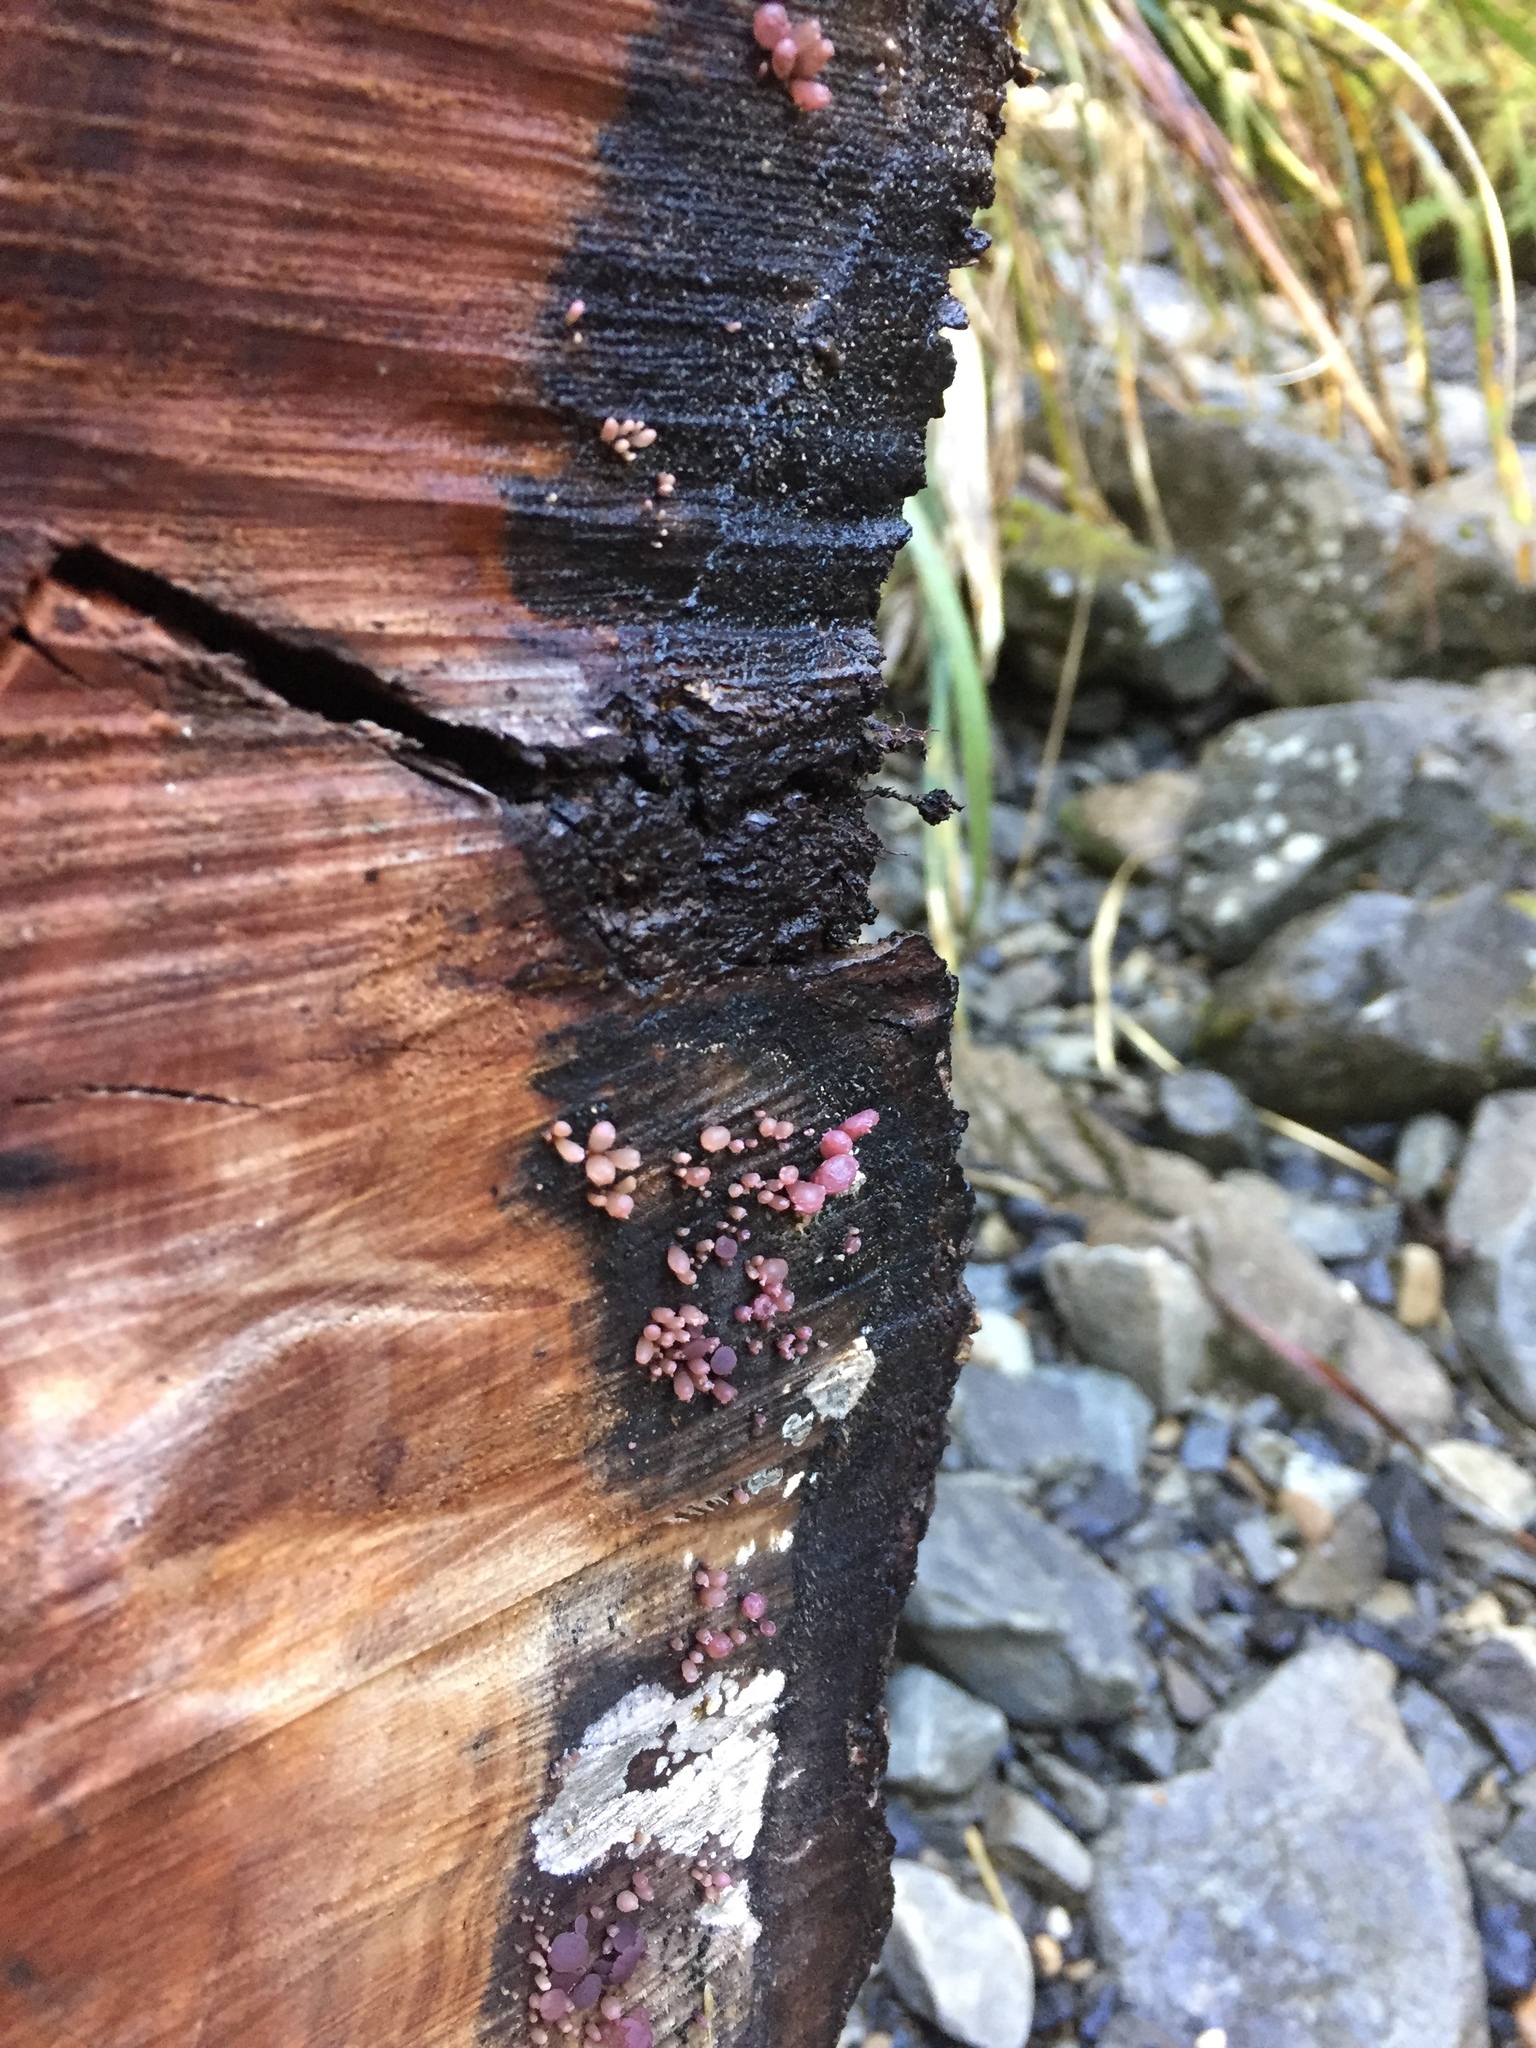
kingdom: Fungi
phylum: Ascomycota
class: Leotiomycetes
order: Helotiales
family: Gelatinodiscaceae
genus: Ascocoryne
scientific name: Ascocoryne sarcoides
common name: Purple jellydisc
